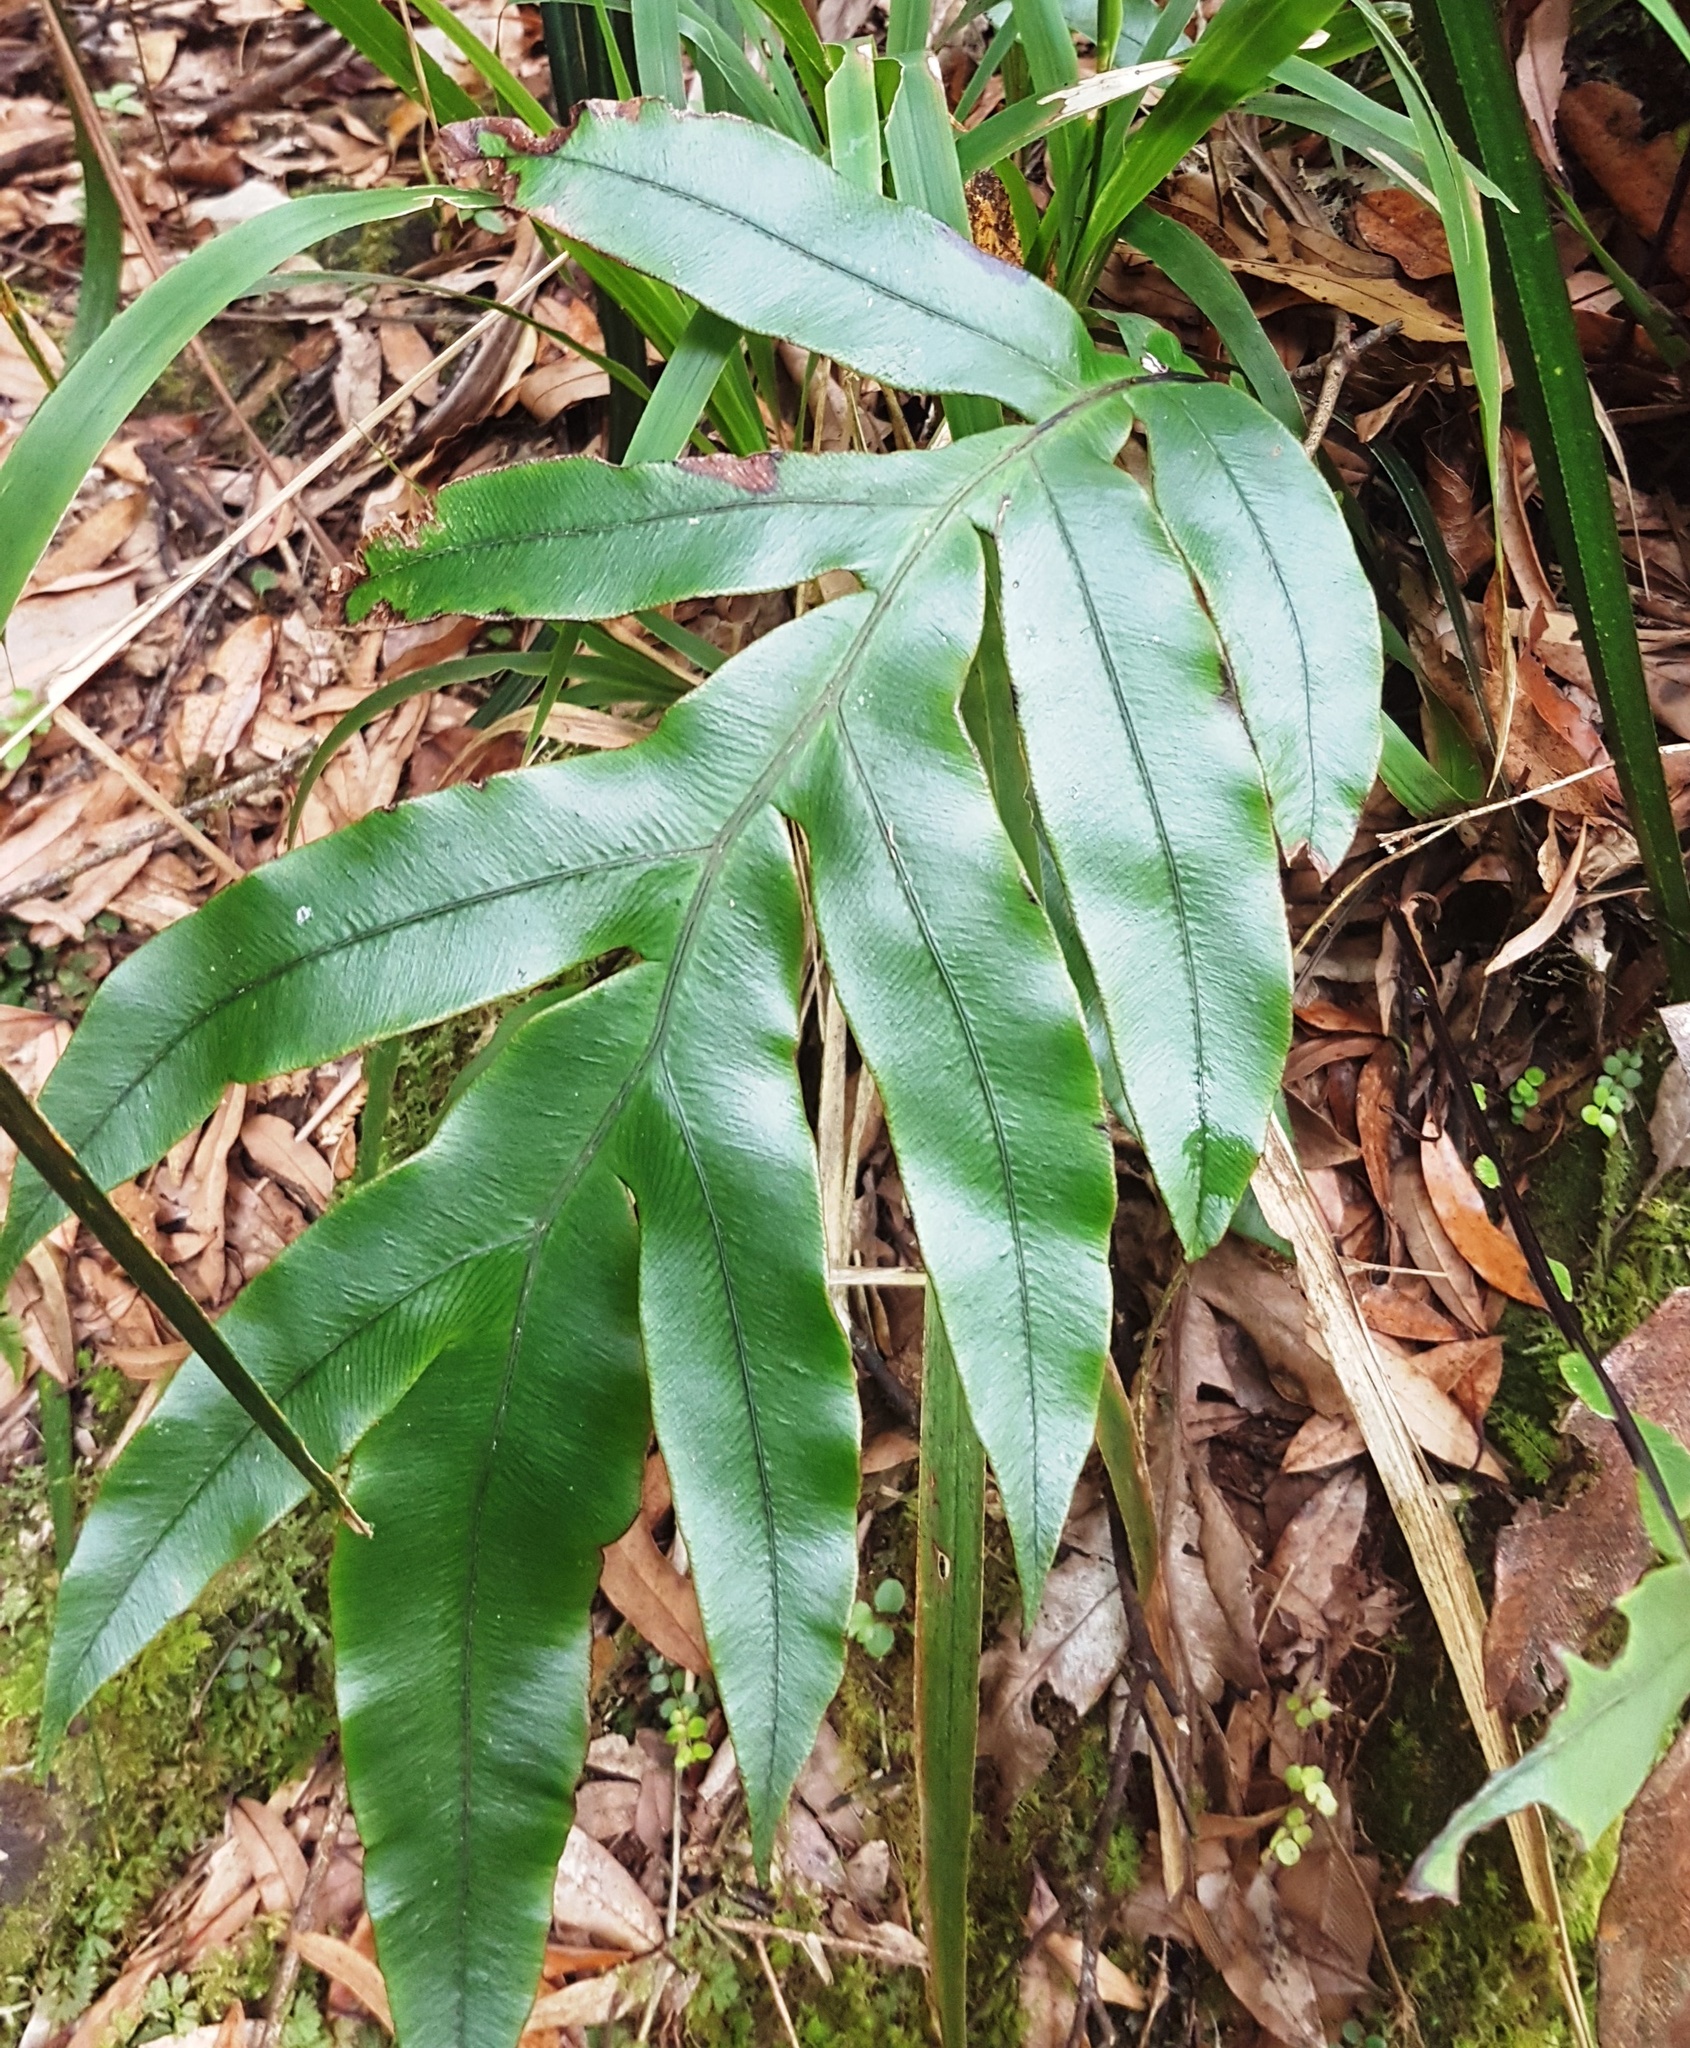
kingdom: Plantae
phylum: Tracheophyta
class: Polypodiopsida
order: Polypodiales
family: Blechnaceae
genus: Austroblechnum
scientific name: Austroblechnum colensoi
